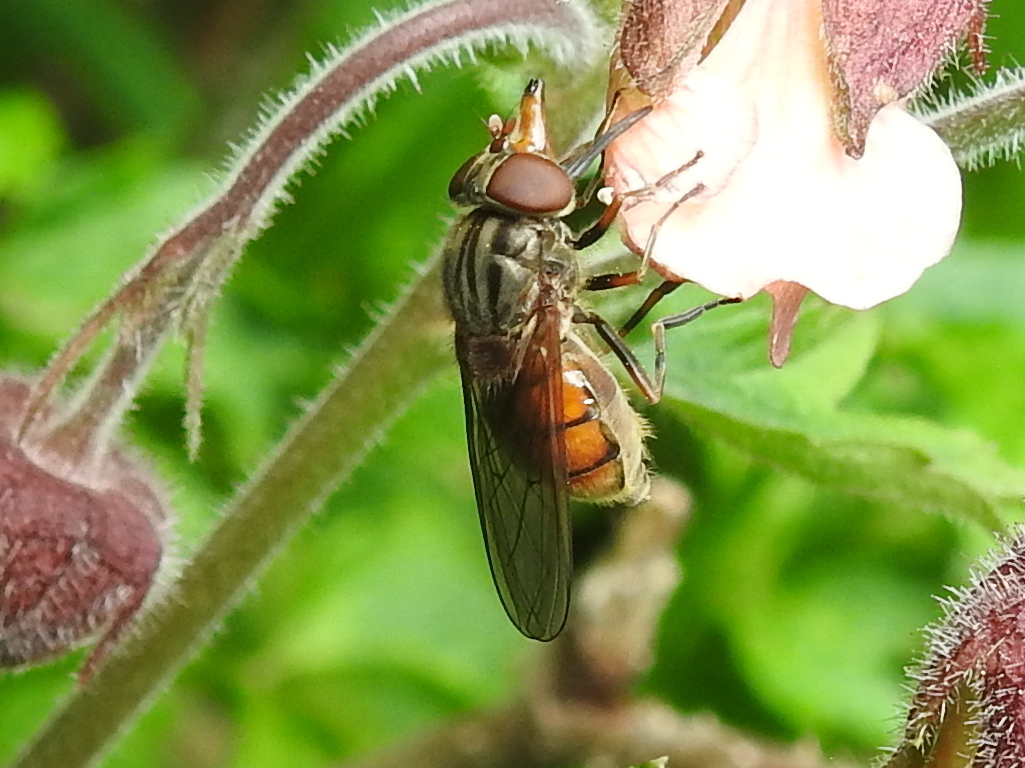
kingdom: Animalia
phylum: Arthropoda
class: Insecta
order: Diptera
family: Syrphidae
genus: Rhingia
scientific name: Rhingia campestris
